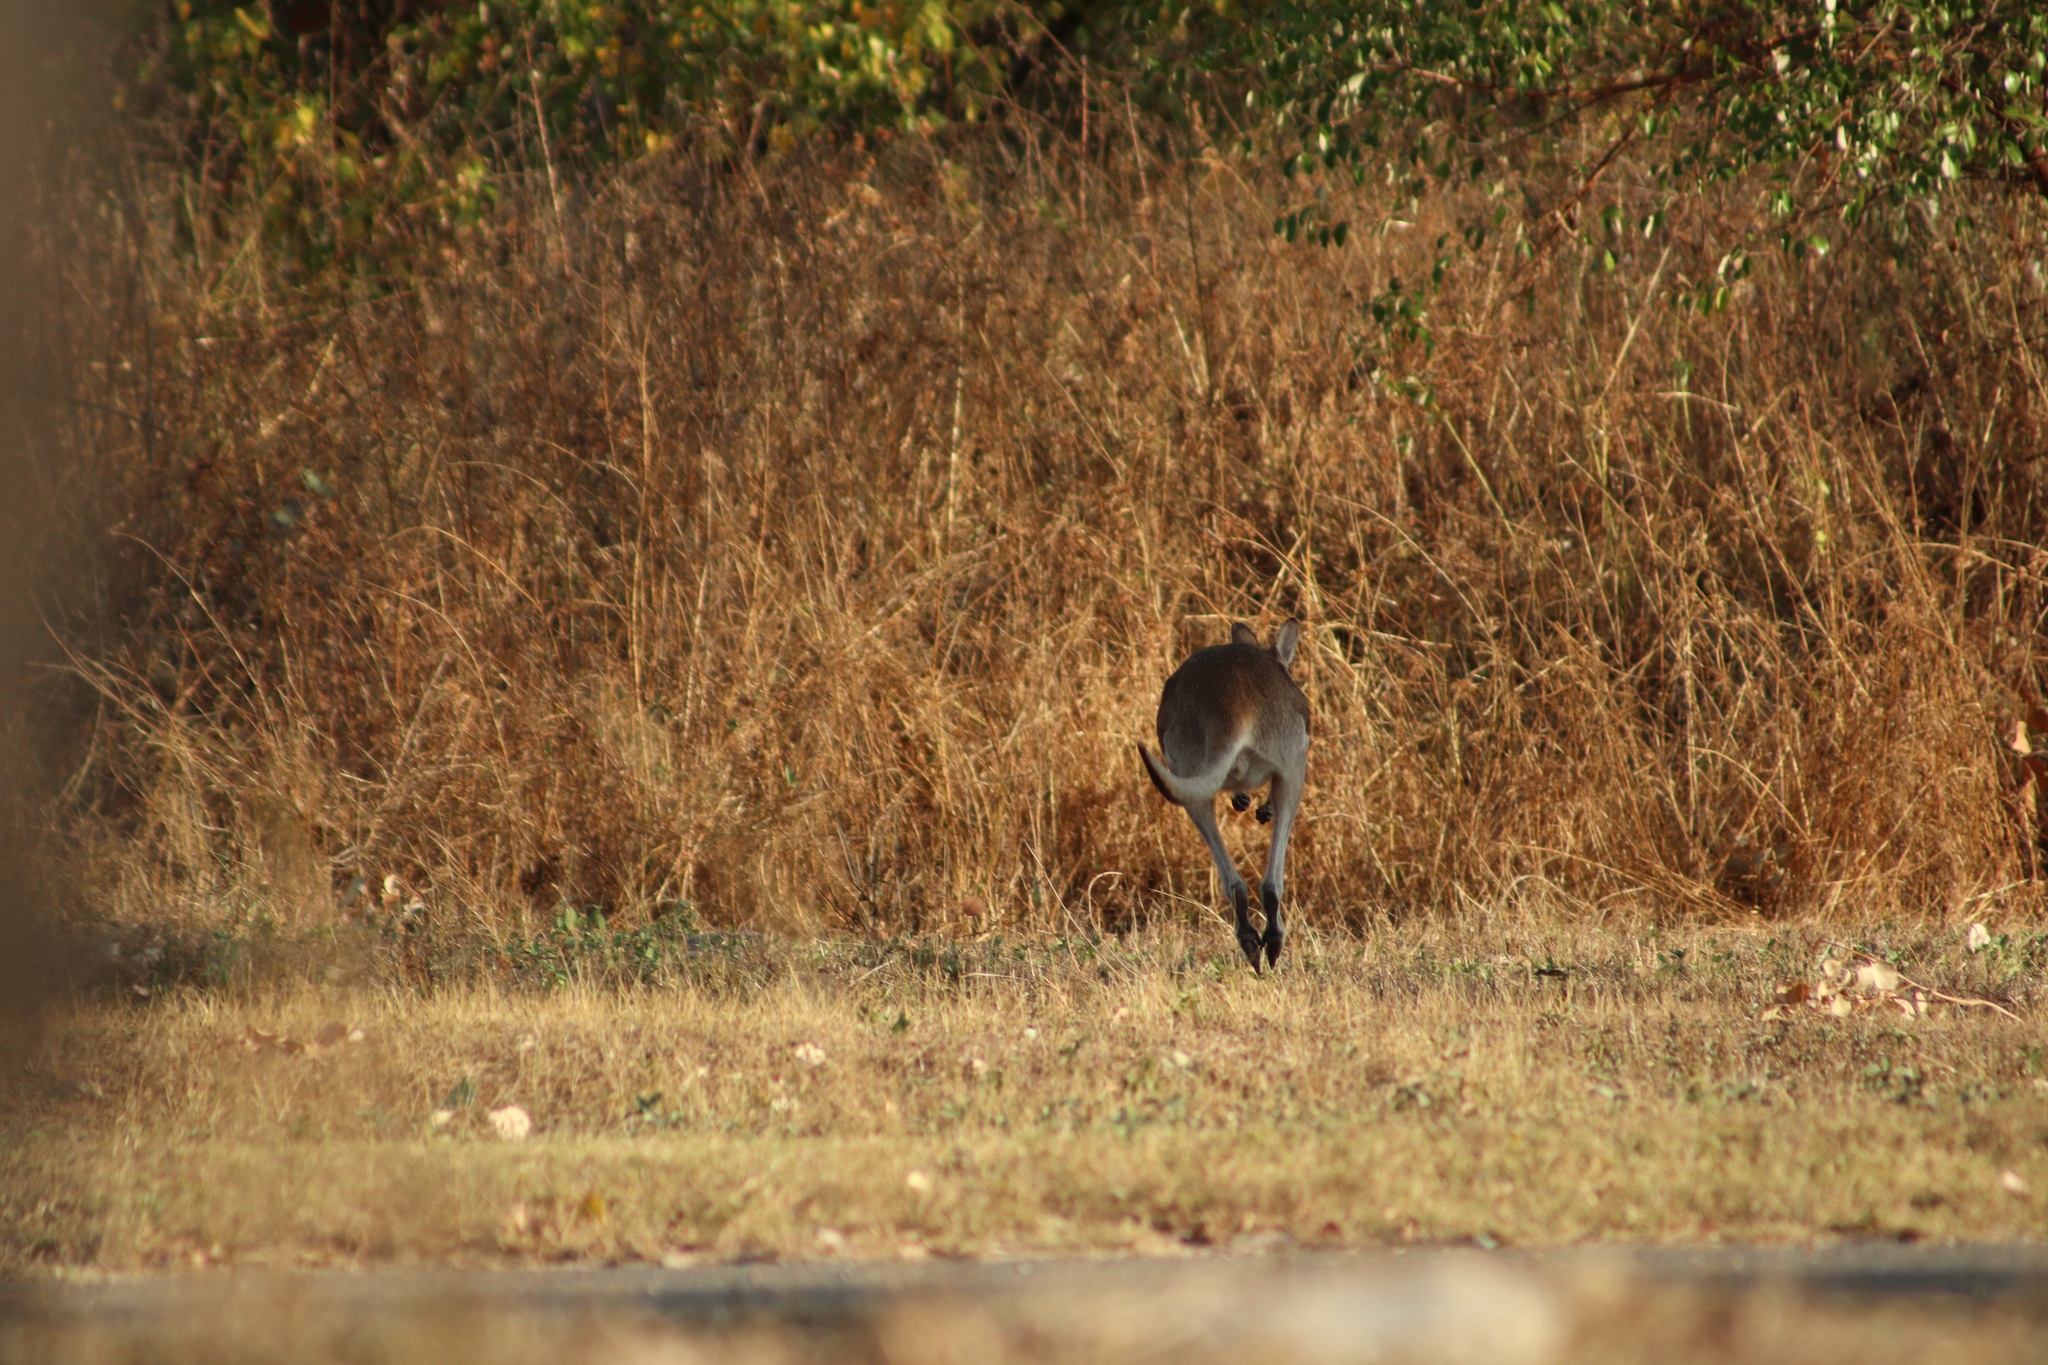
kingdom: Animalia
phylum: Chordata
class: Mammalia
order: Diprotodontia
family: Macropodidae
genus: Macropus
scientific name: Macropus agilis
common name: Agile wallaby
